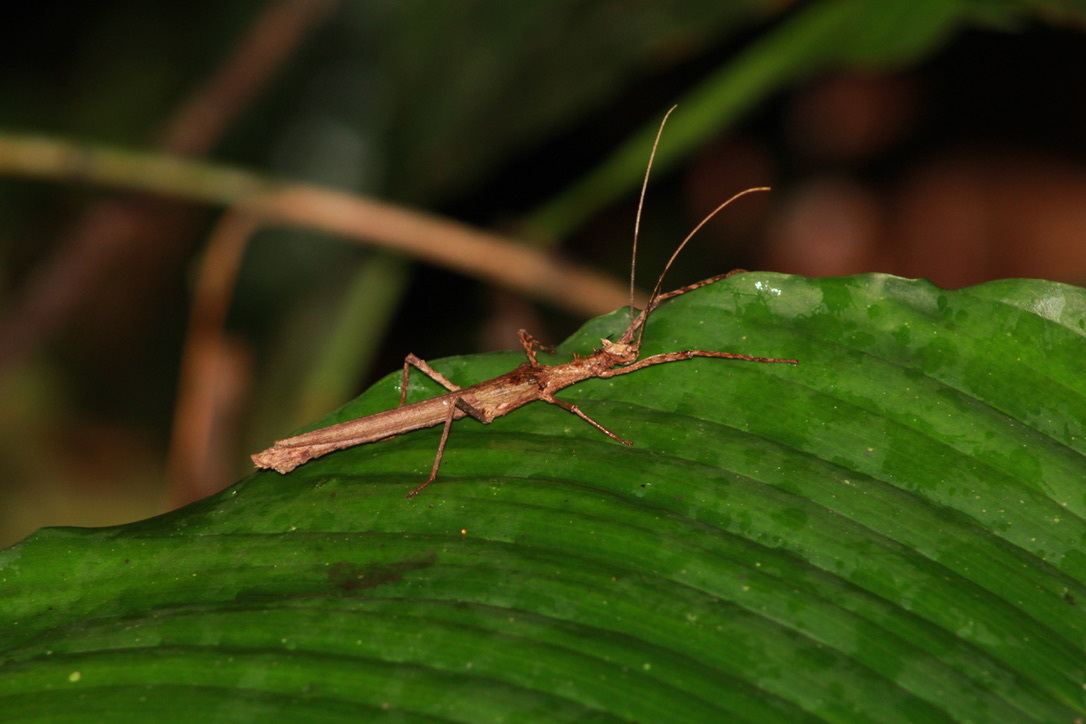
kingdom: Animalia
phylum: Arthropoda
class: Insecta
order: Phasmida
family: Pseudophasmatidae
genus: Creoxylus
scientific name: Creoxylus spinosus
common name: Trinidad log stick insect
